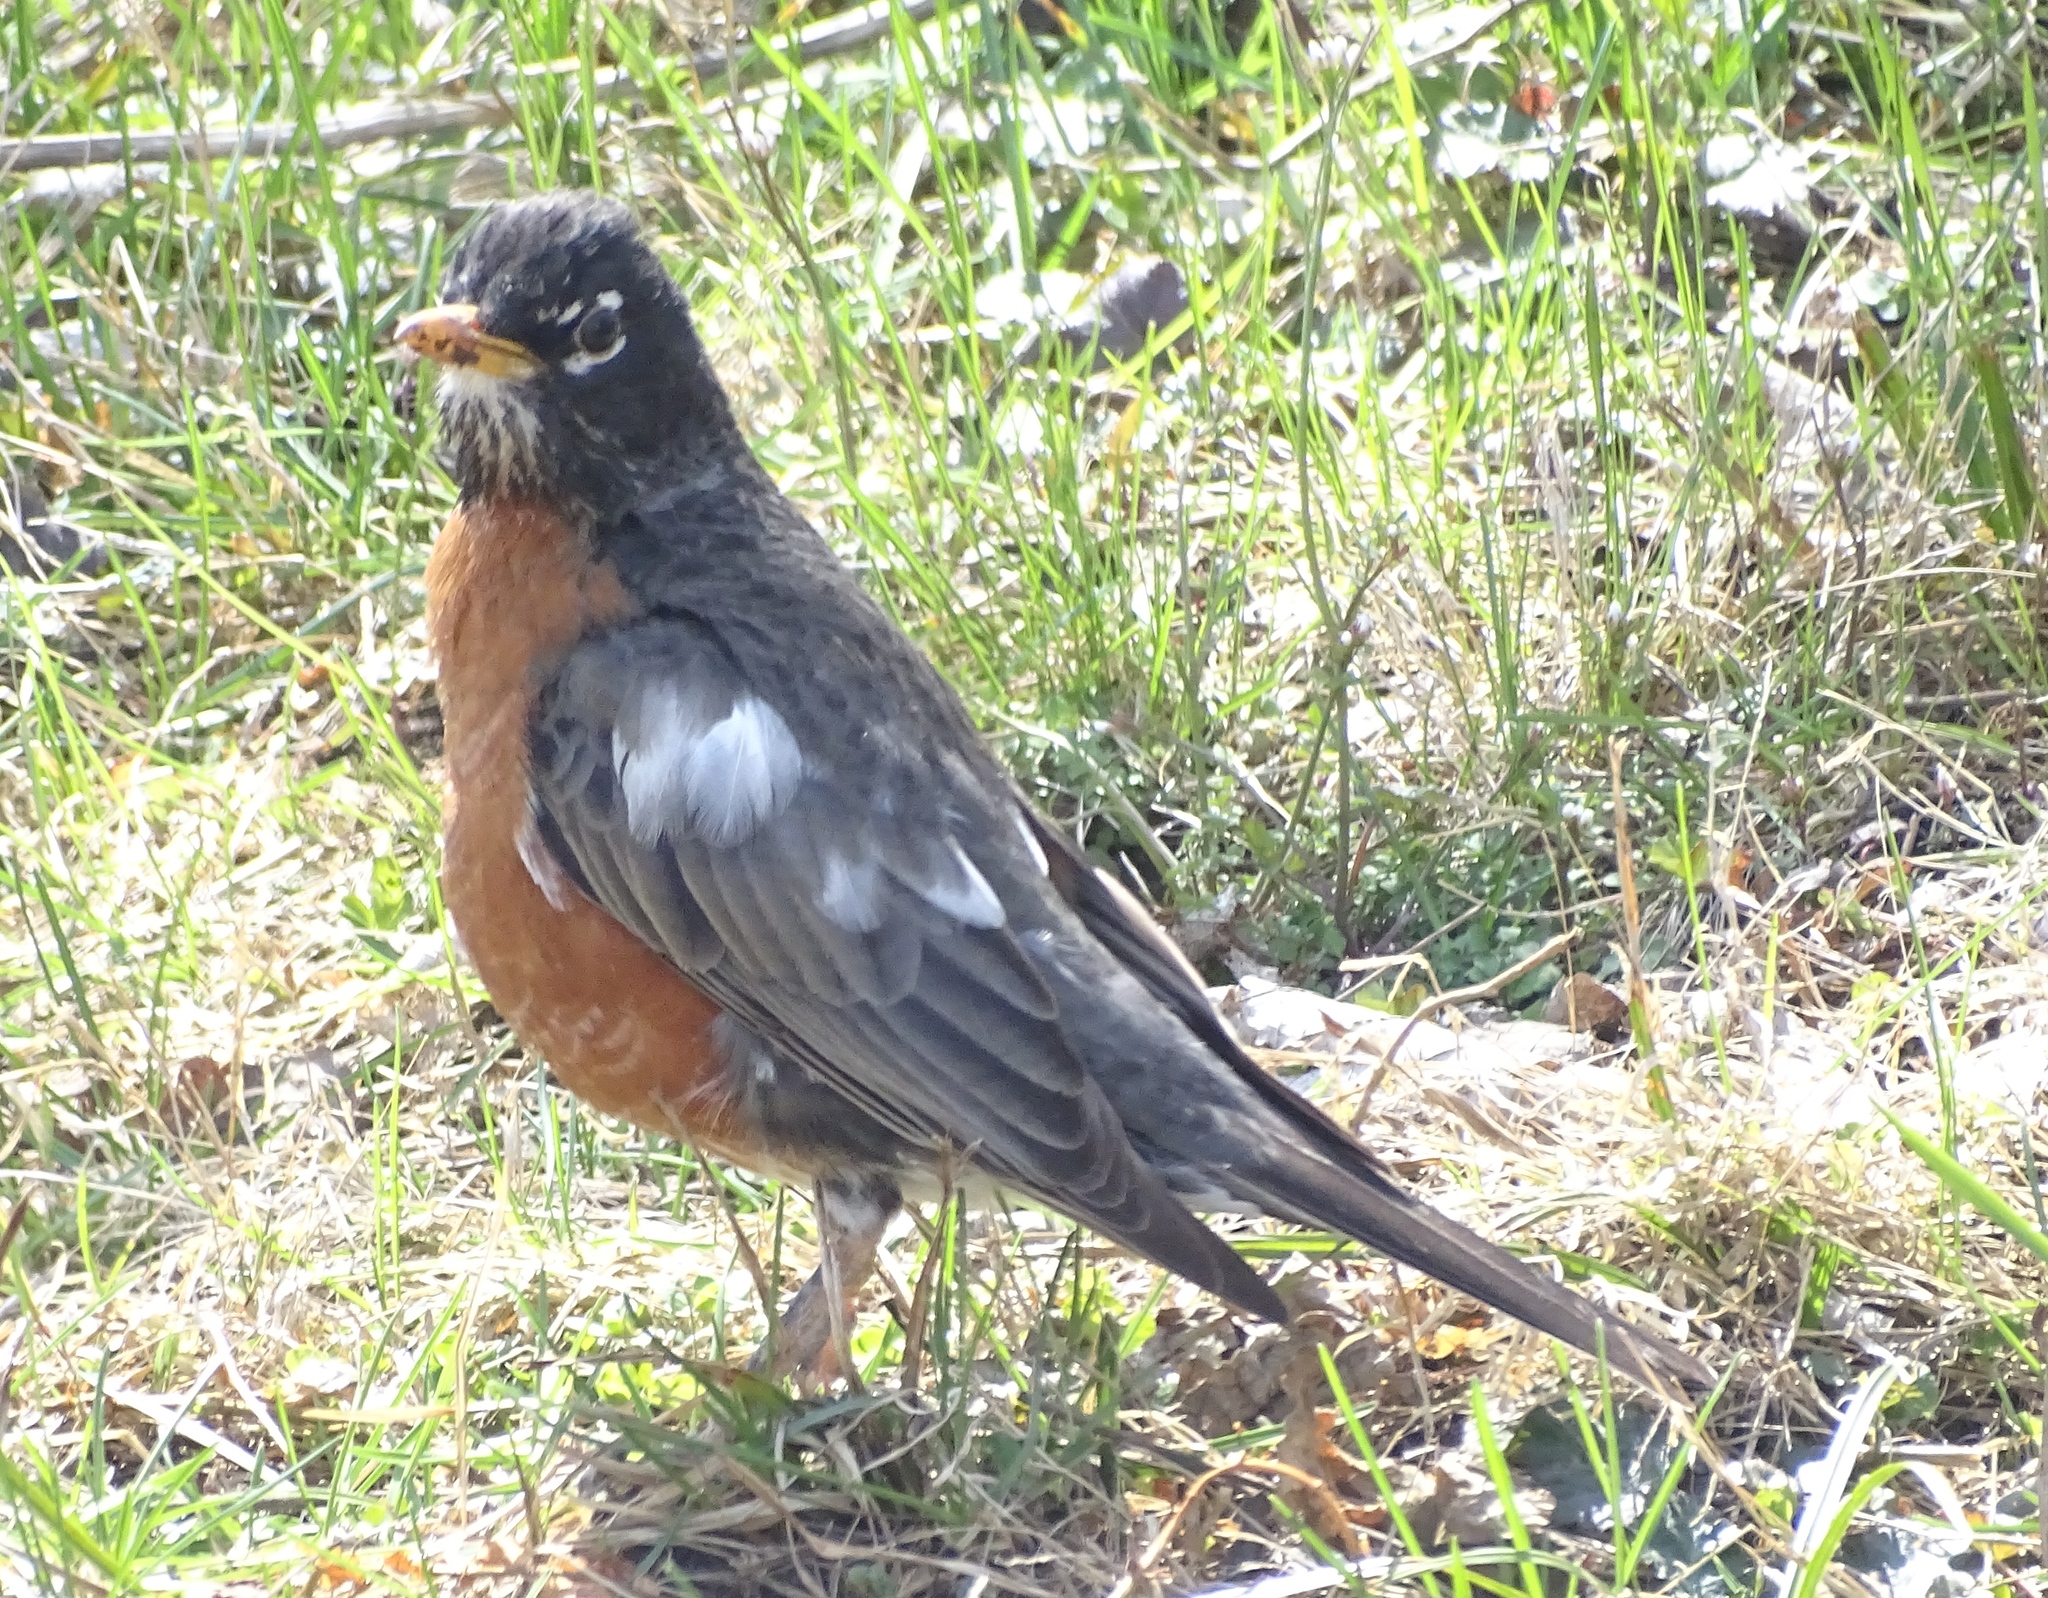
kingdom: Animalia
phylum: Chordata
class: Aves
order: Passeriformes
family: Turdidae
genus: Turdus
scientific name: Turdus migratorius
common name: American robin
